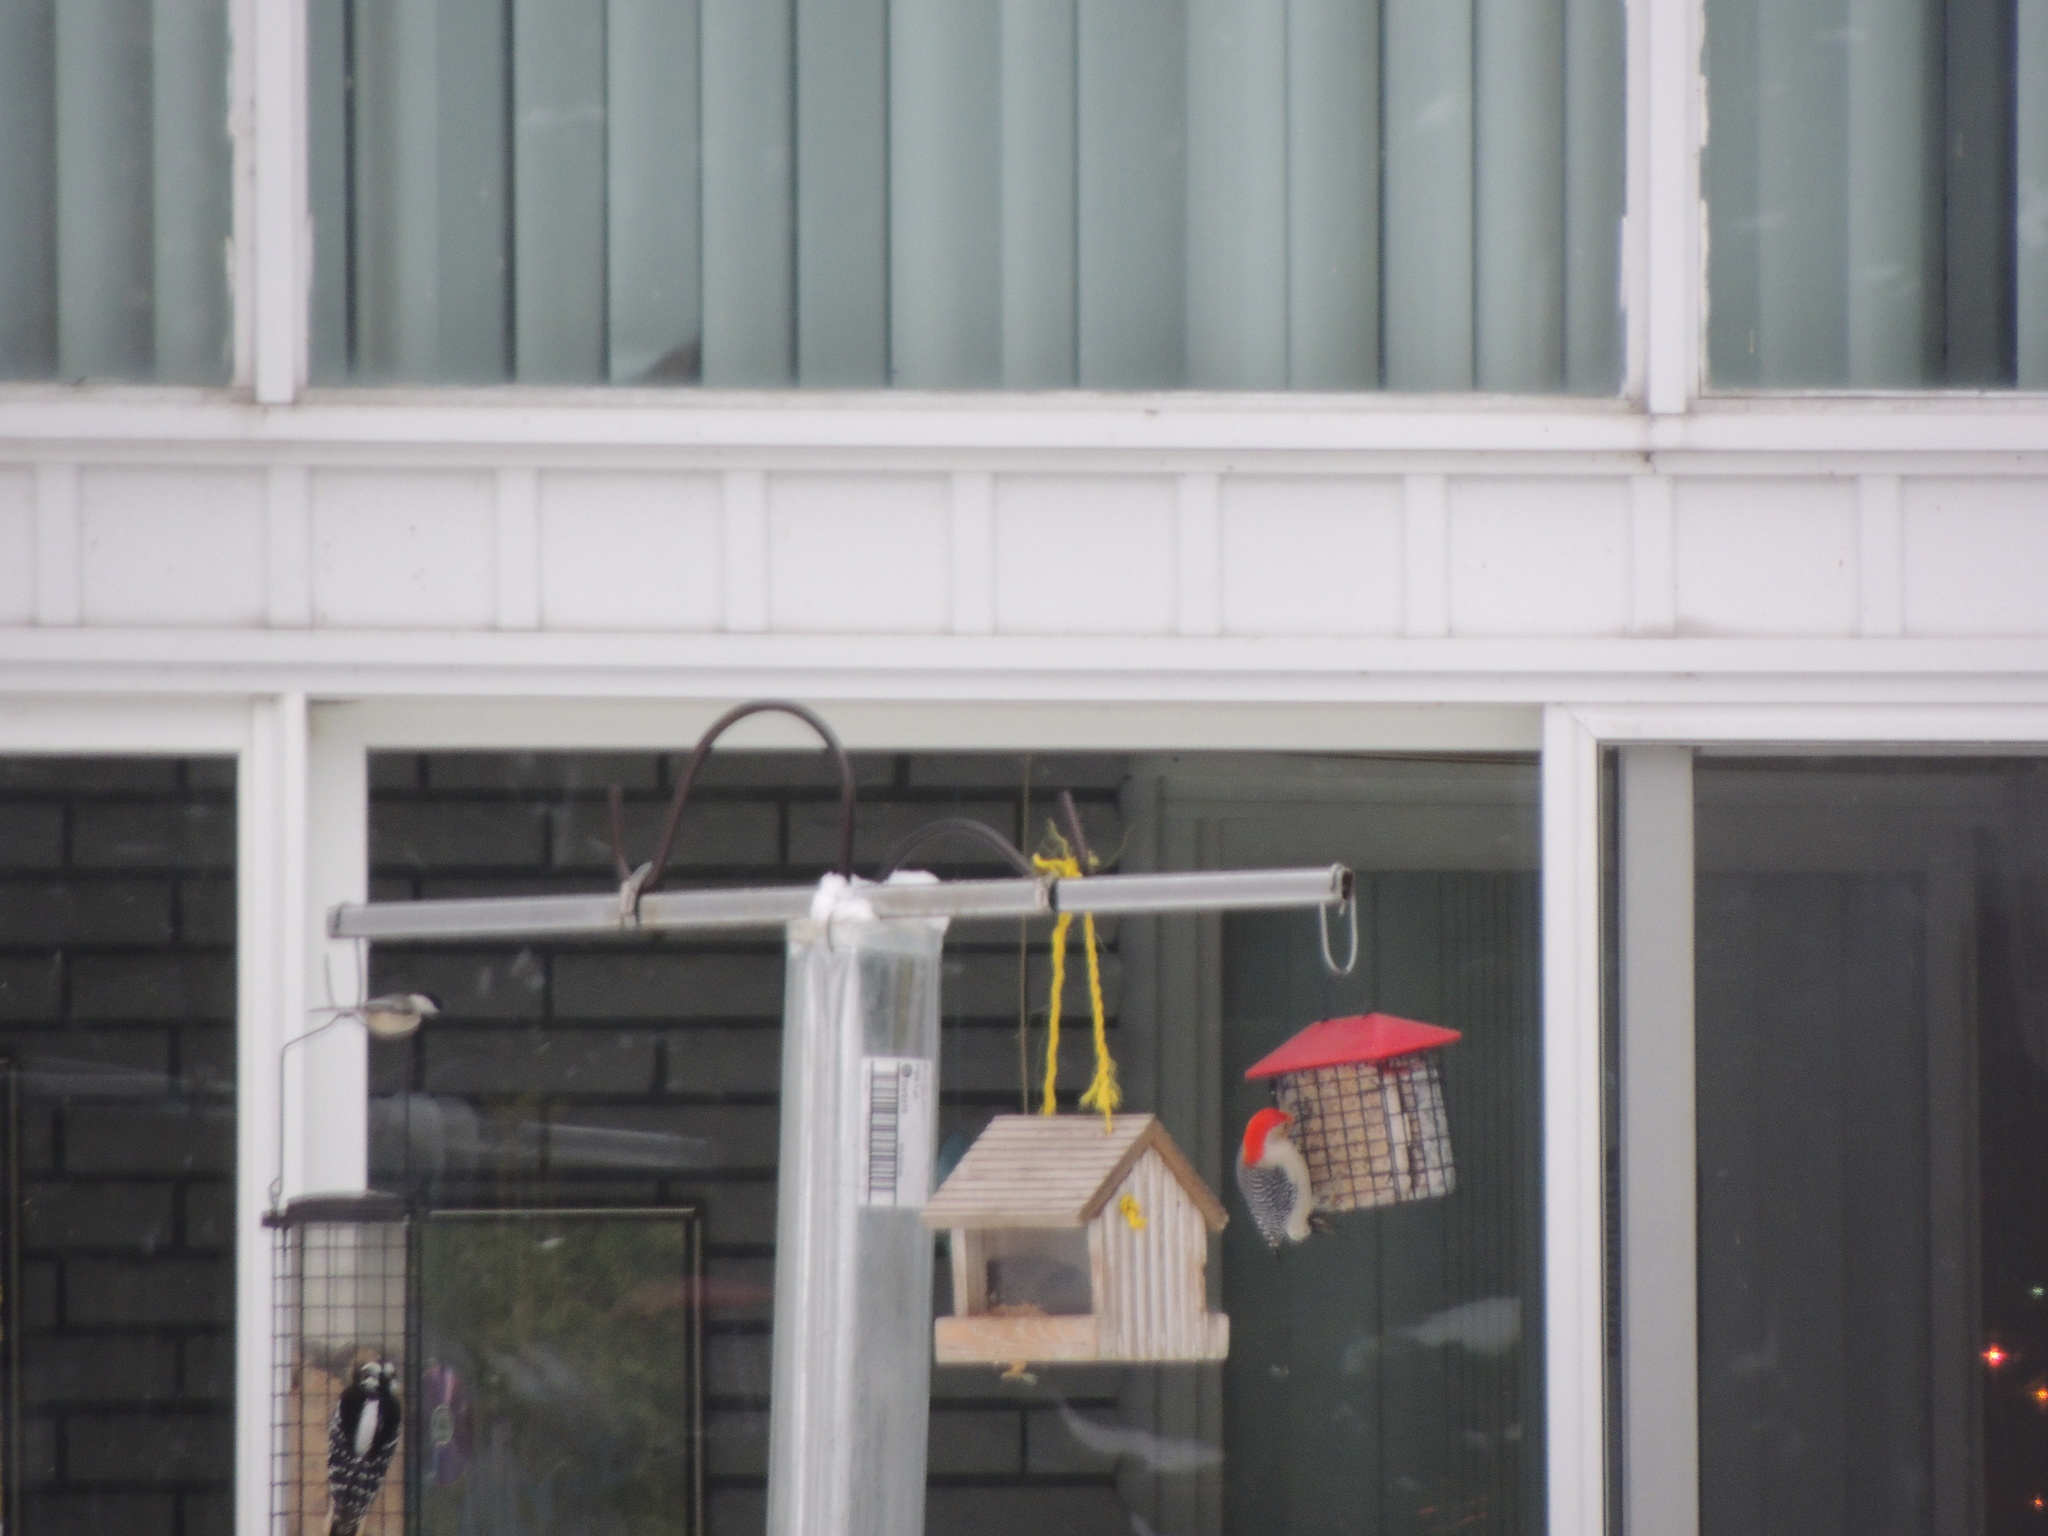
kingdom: Animalia
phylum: Chordata
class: Aves
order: Piciformes
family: Picidae
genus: Melanerpes
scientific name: Melanerpes carolinus
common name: Red-bellied woodpecker
